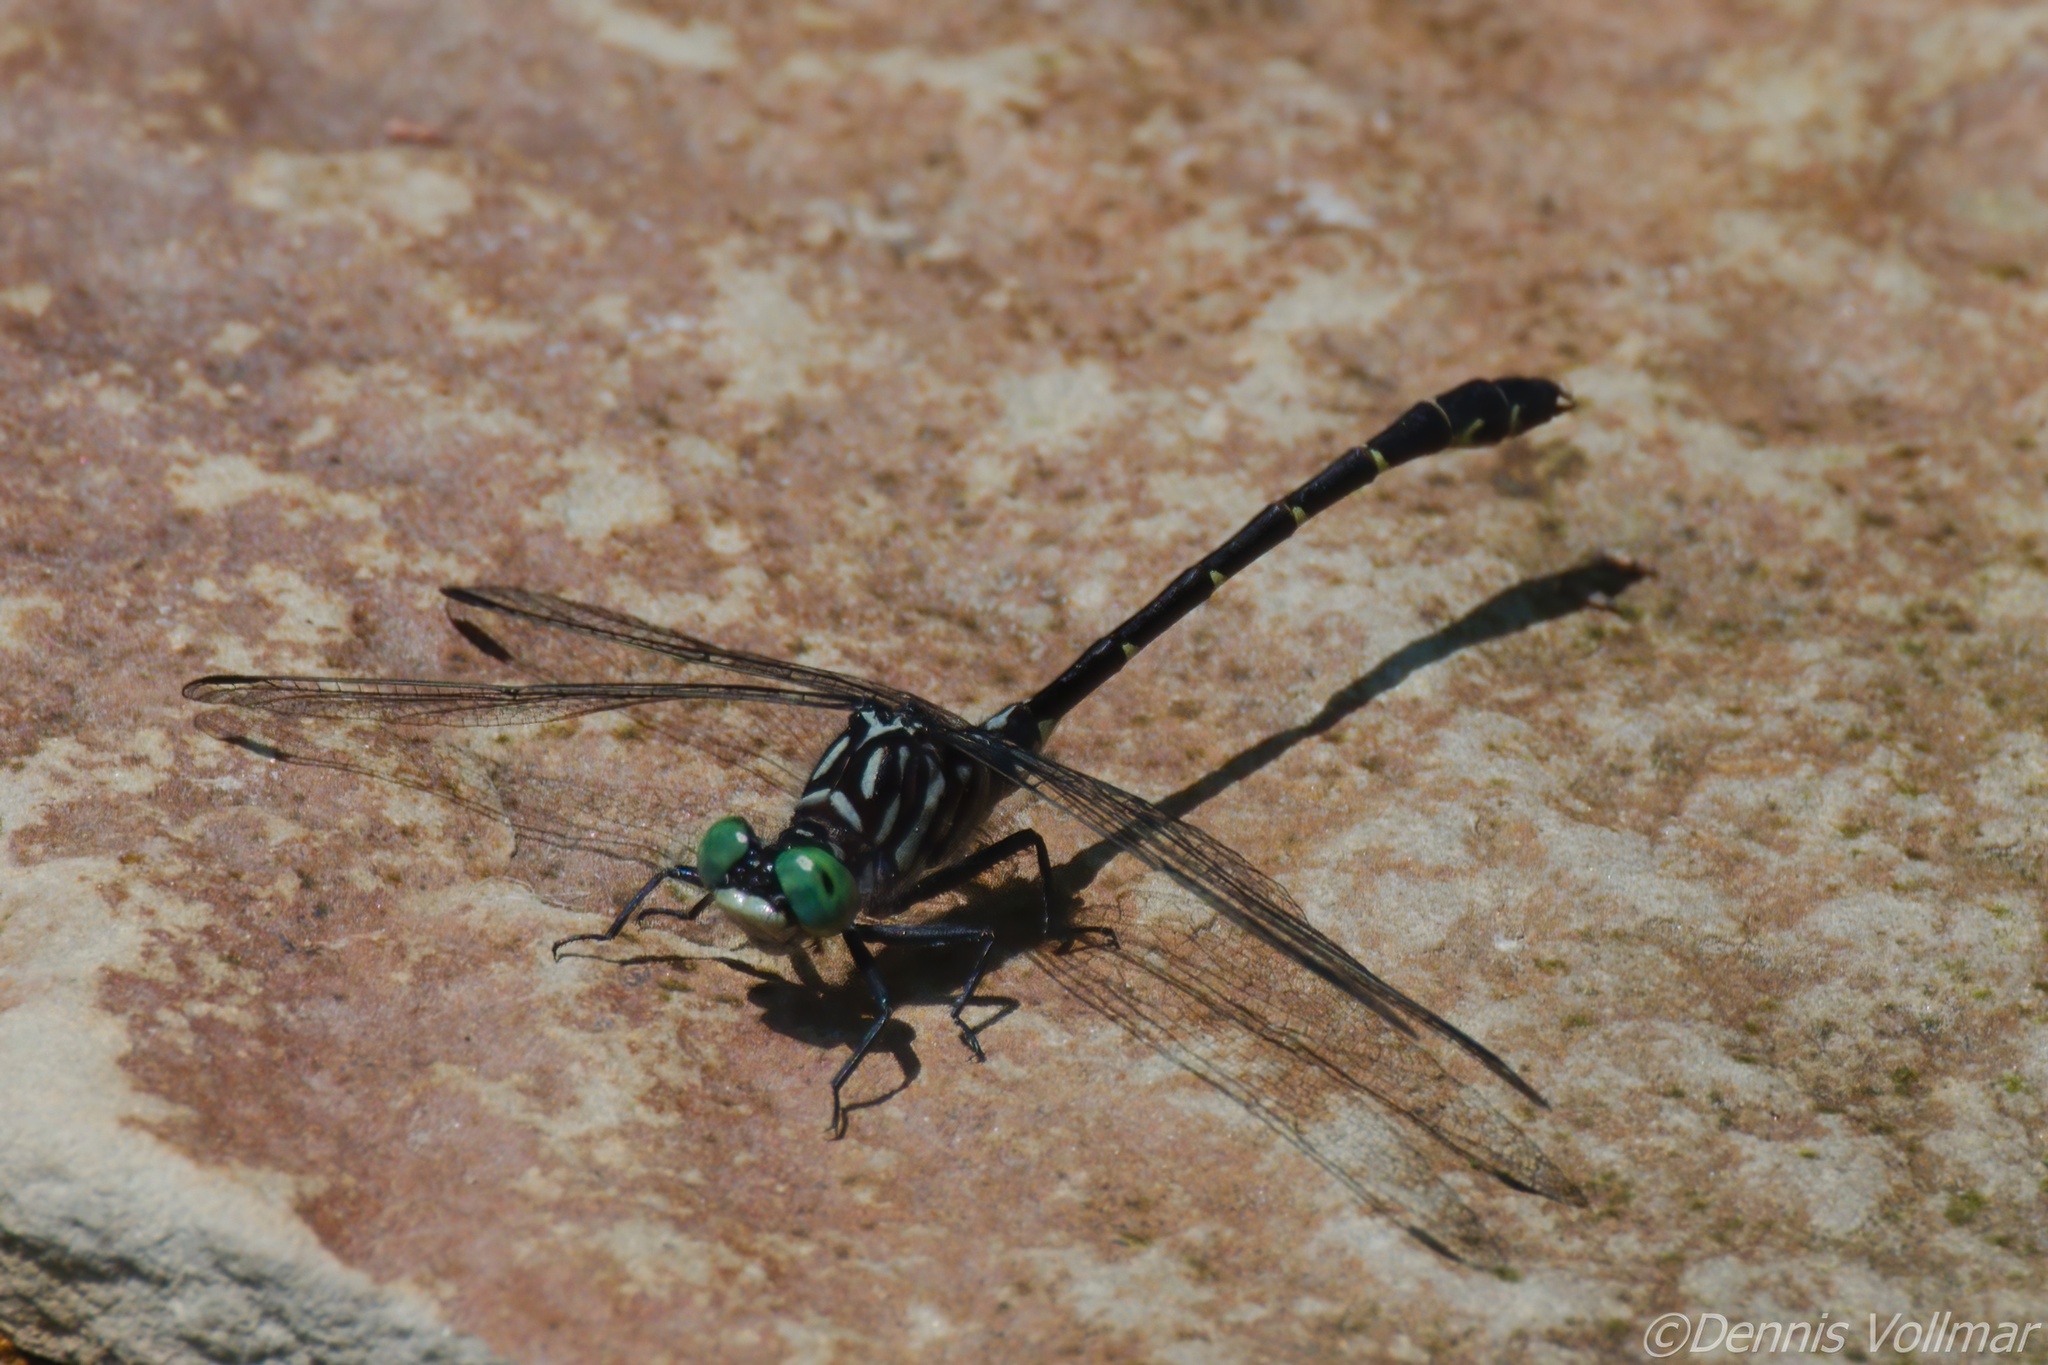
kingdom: Animalia
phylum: Arthropoda
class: Insecta
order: Odonata
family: Gomphidae
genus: Stylogomphus
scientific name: Stylogomphus albistylus
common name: Eastern least clubtail
